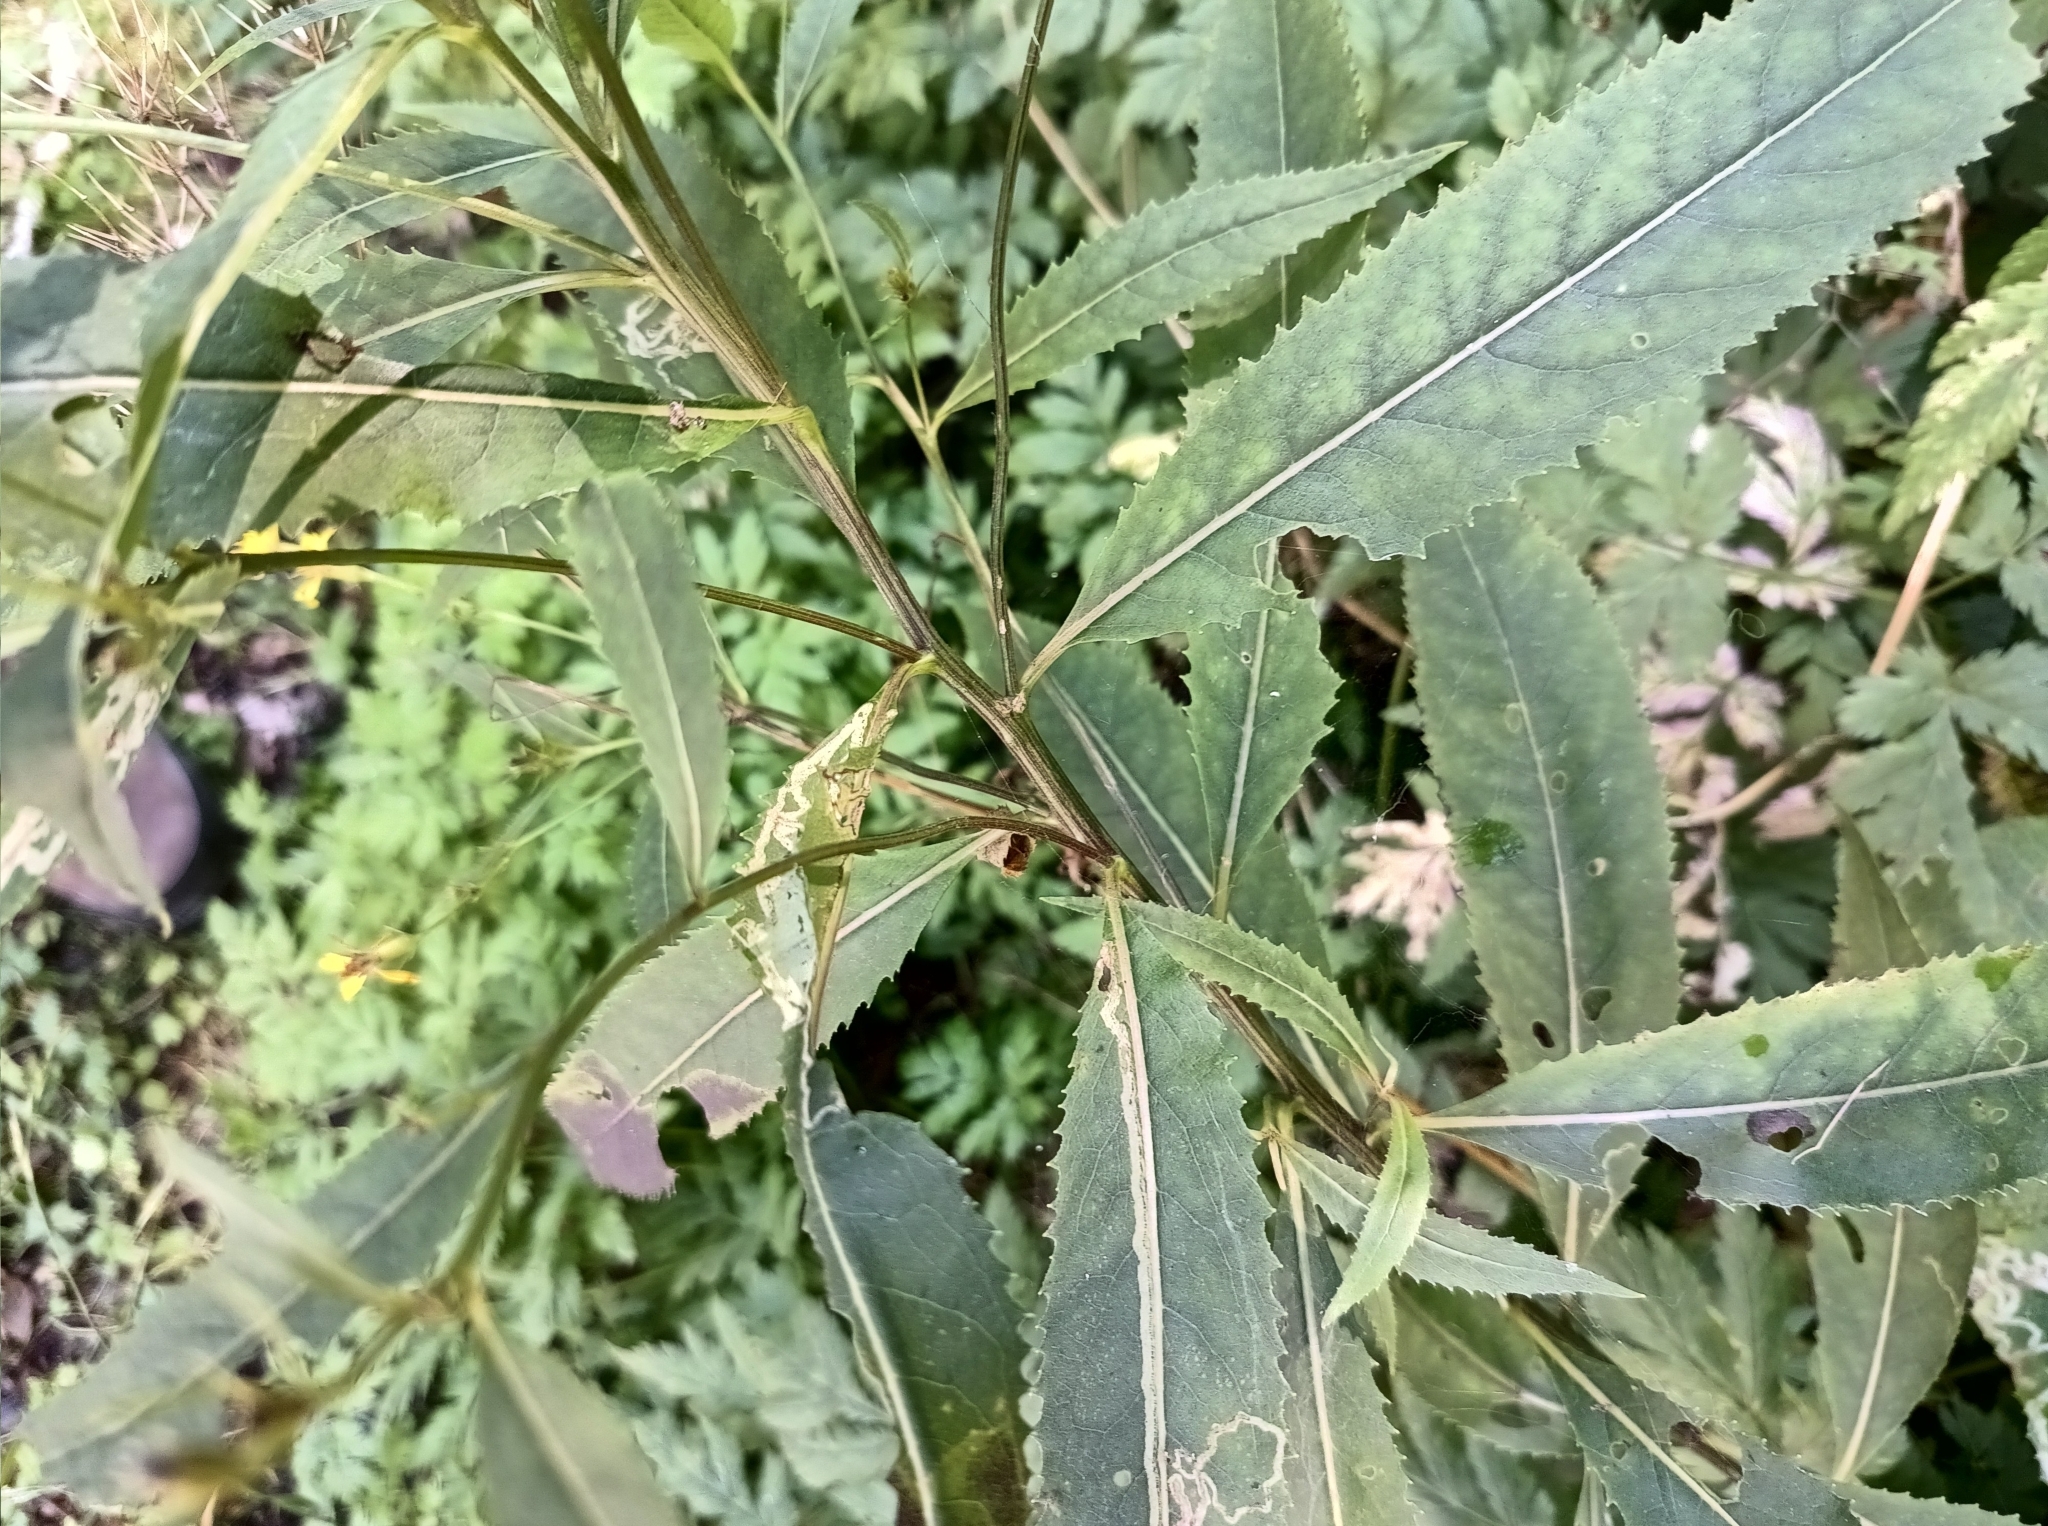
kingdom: Plantae
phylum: Tracheophyta
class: Magnoliopsida
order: Asterales
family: Asteraceae
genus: Senecio
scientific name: Senecio ovatus
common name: Wood ragwort
